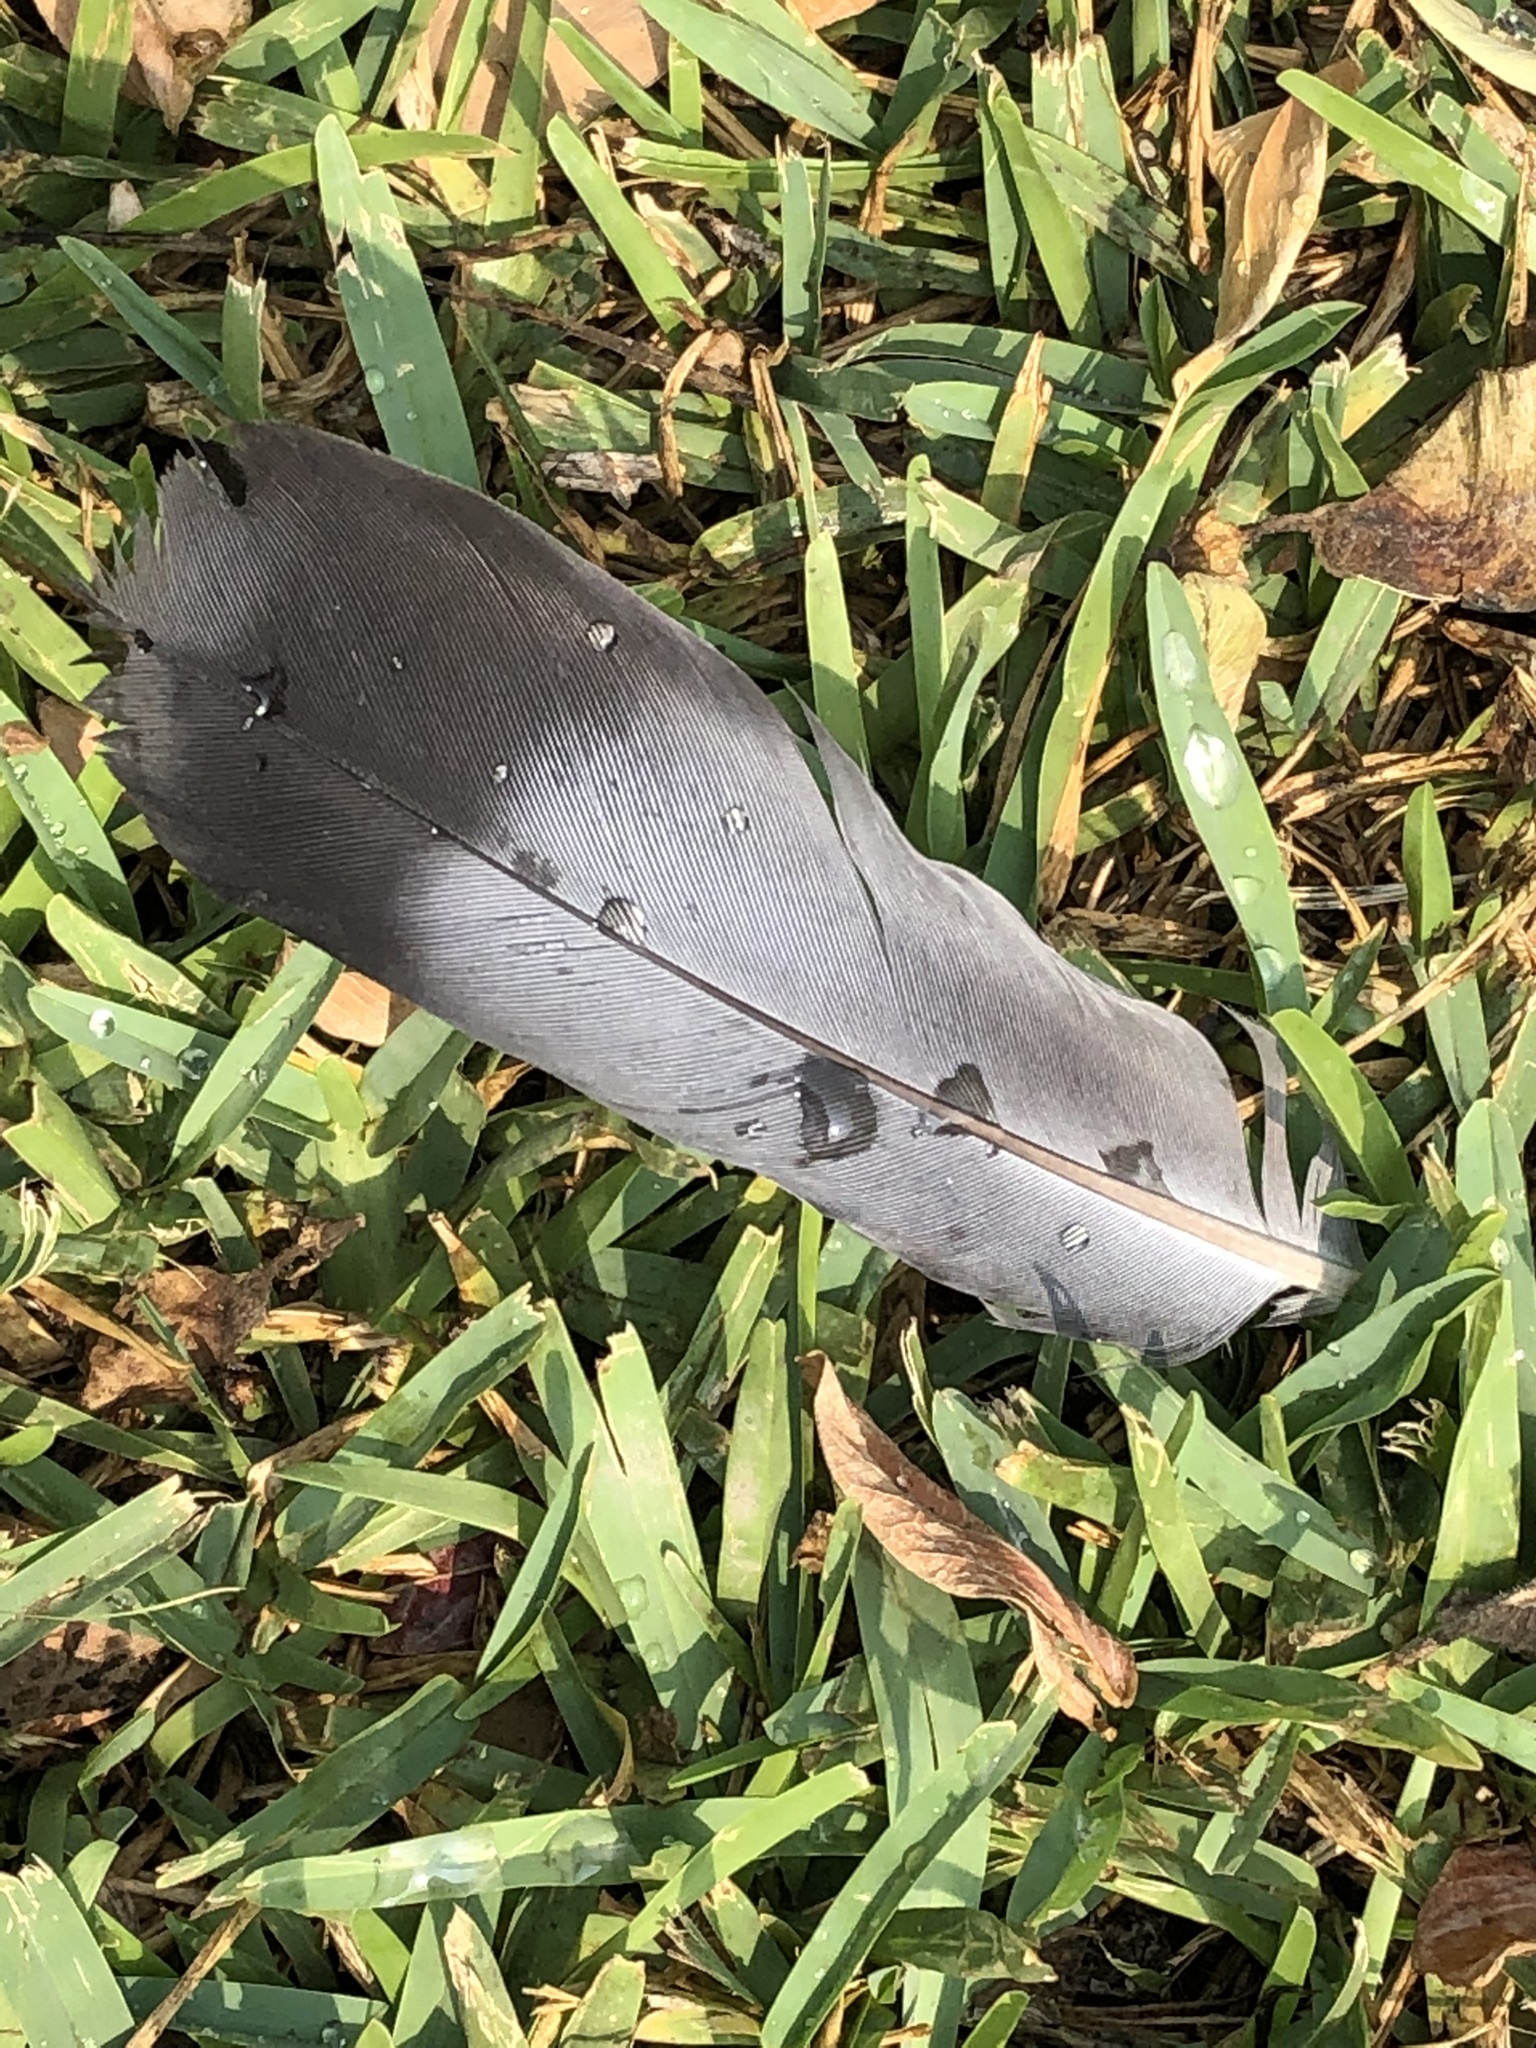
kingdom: Animalia
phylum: Chordata
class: Aves
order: Columbiformes
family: Columbidae
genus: Columba
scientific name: Columba livia
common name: Rock pigeon
